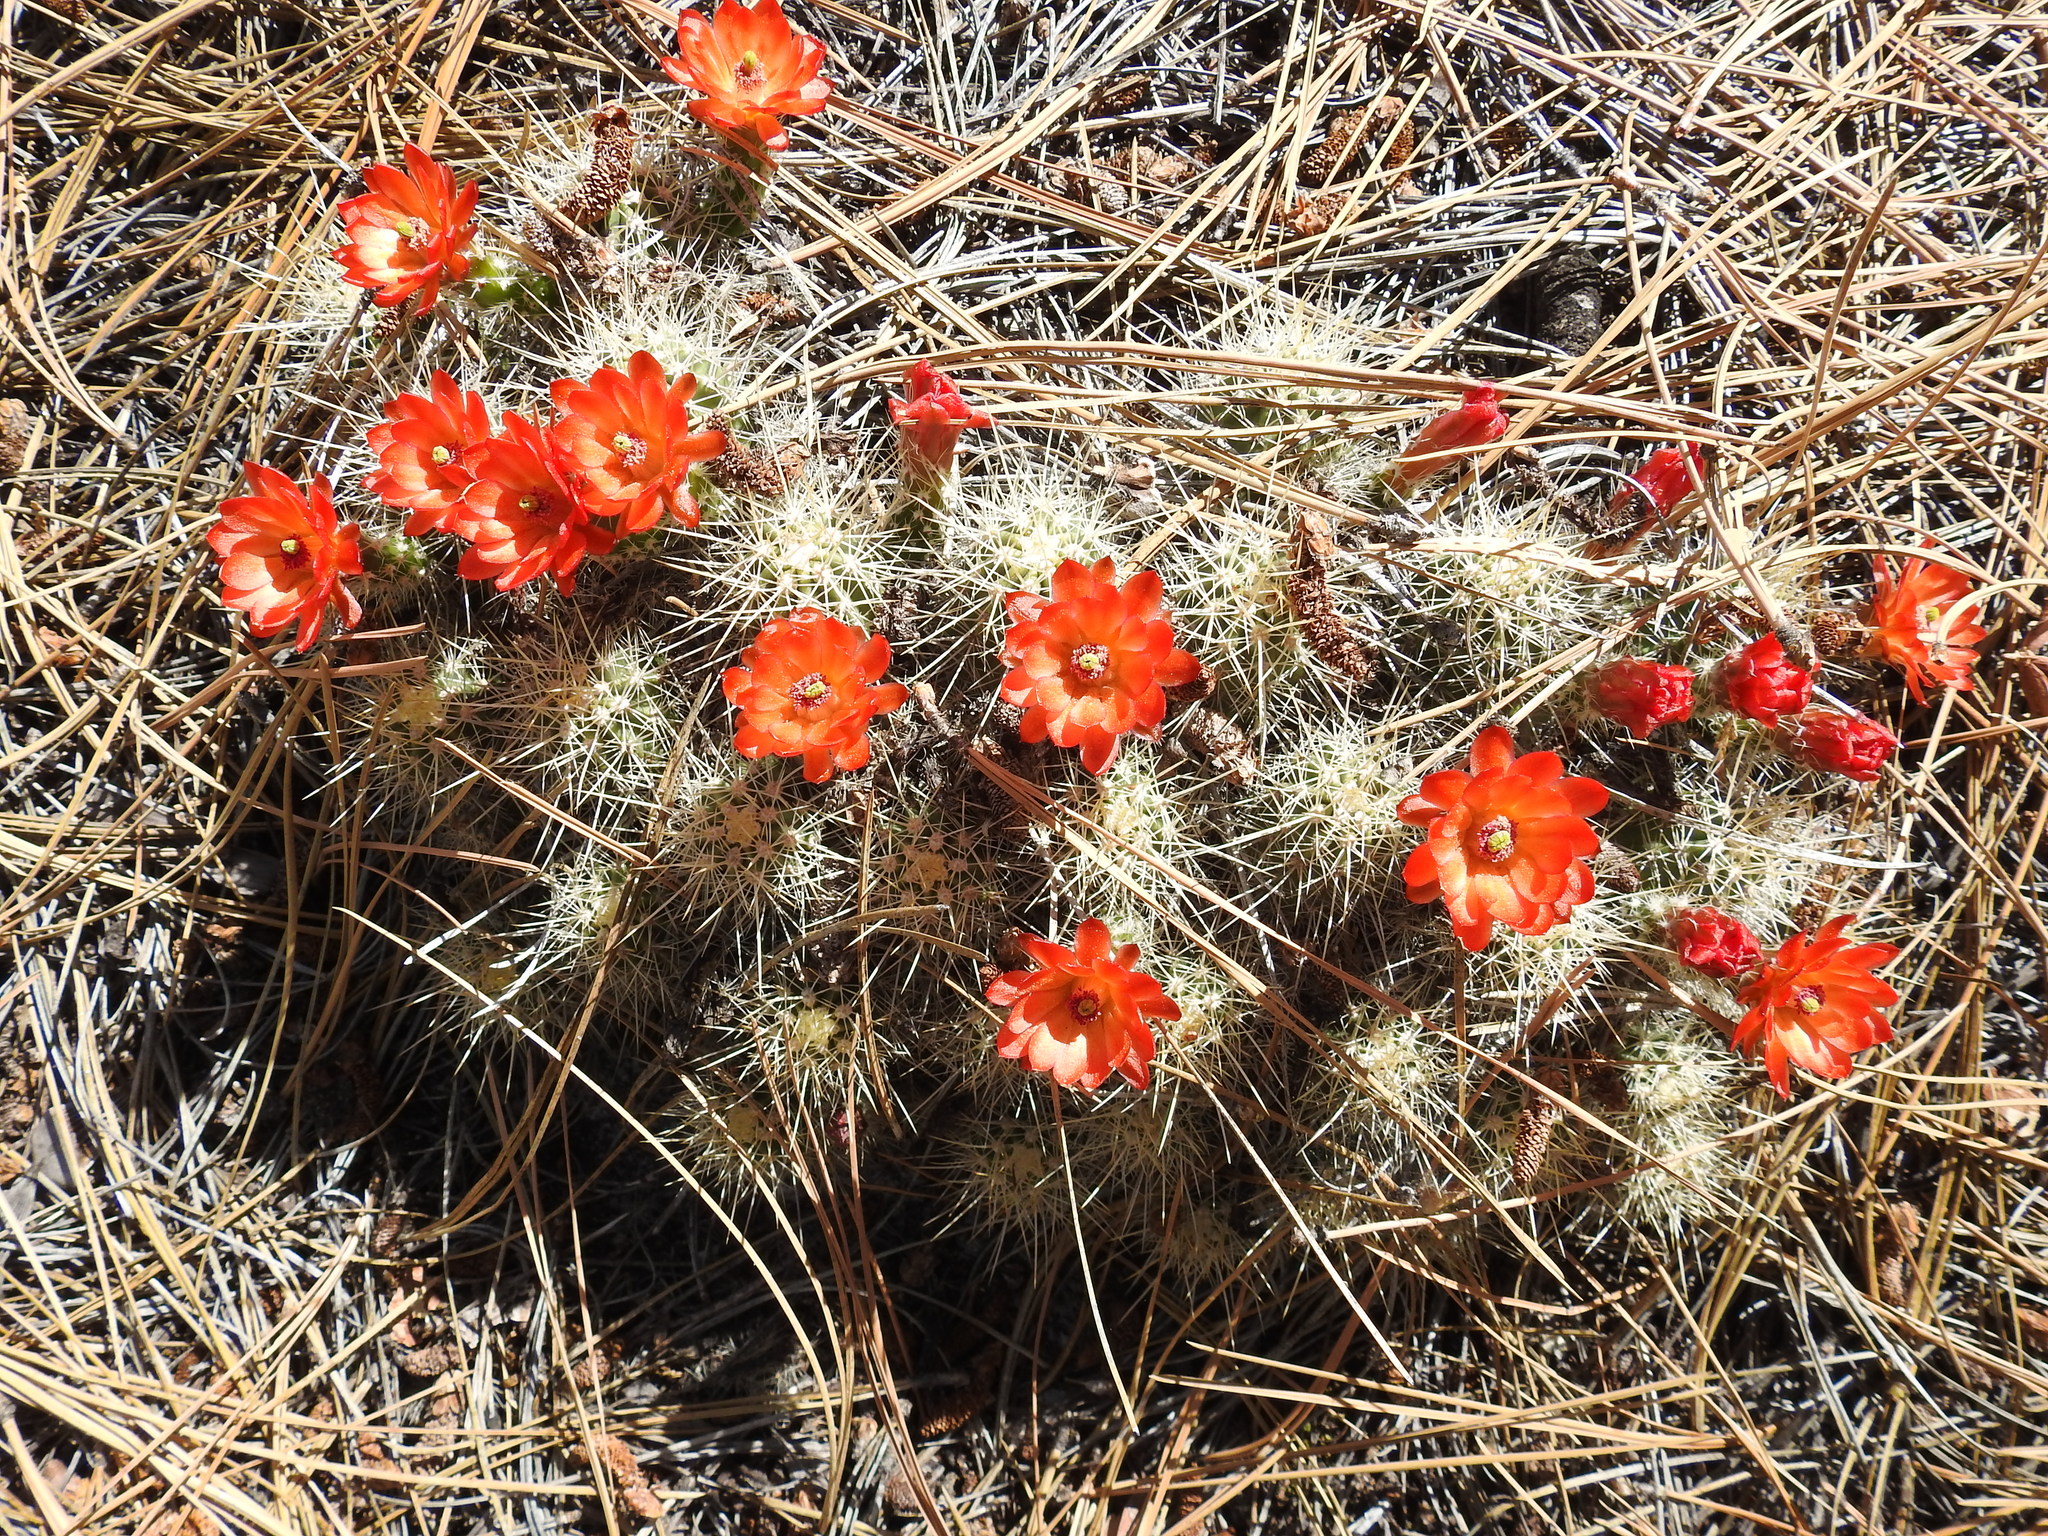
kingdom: Plantae
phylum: Tracheophyta
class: Magnoliopsida
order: Caryophyllales
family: Cactaceae
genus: Echinocereus
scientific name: Echinocereus pacificus
